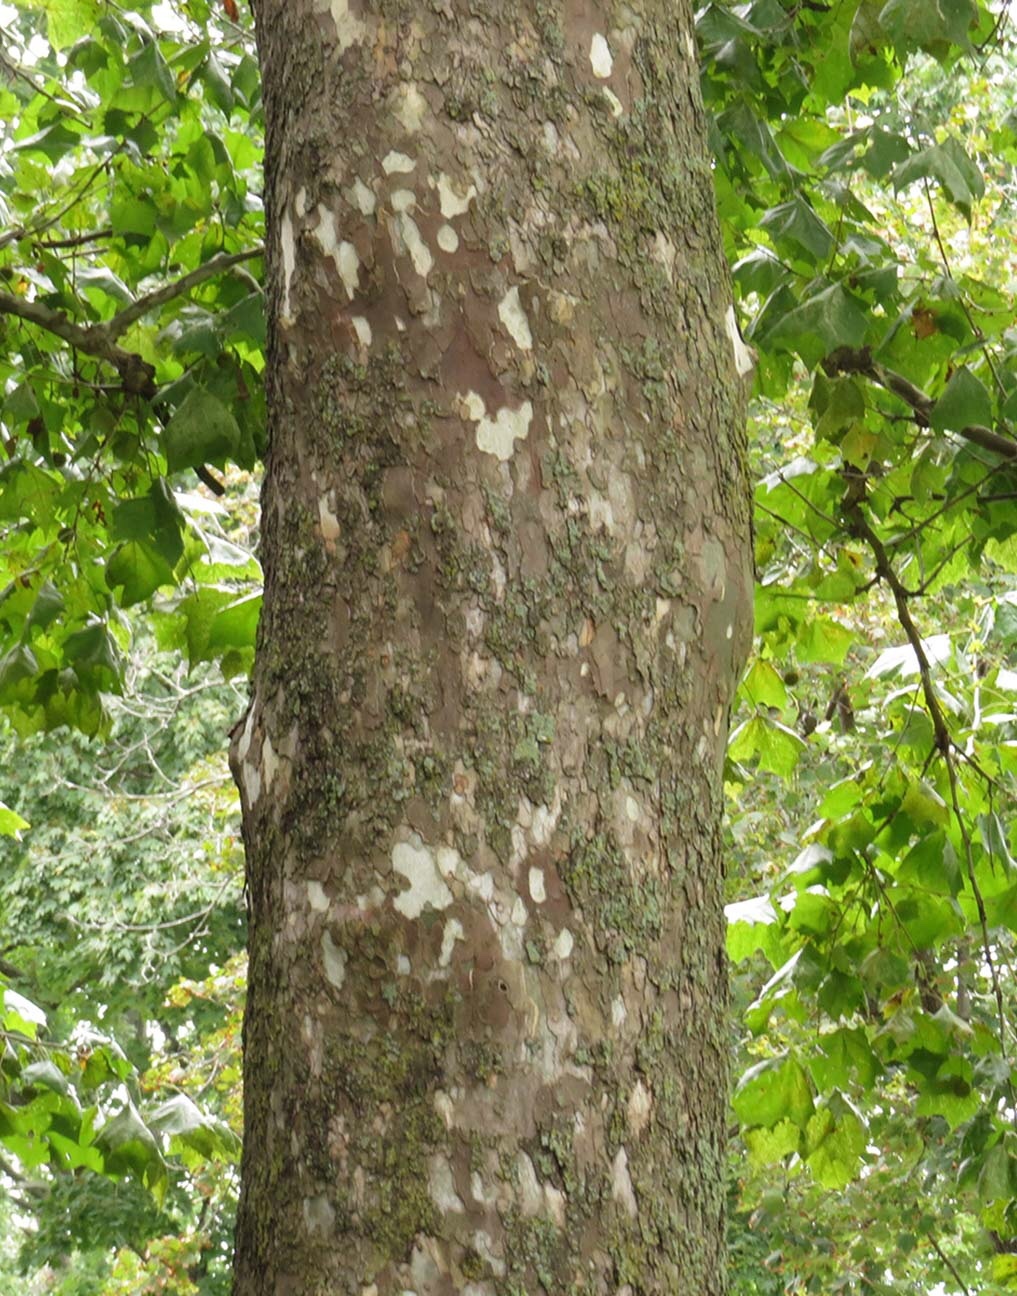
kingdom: Plantae
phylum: Tracheophyta
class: Magnoliopsida
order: Proteales
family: Platanaceae
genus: Platanus
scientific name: Platanus occidentalis
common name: American sycamore
